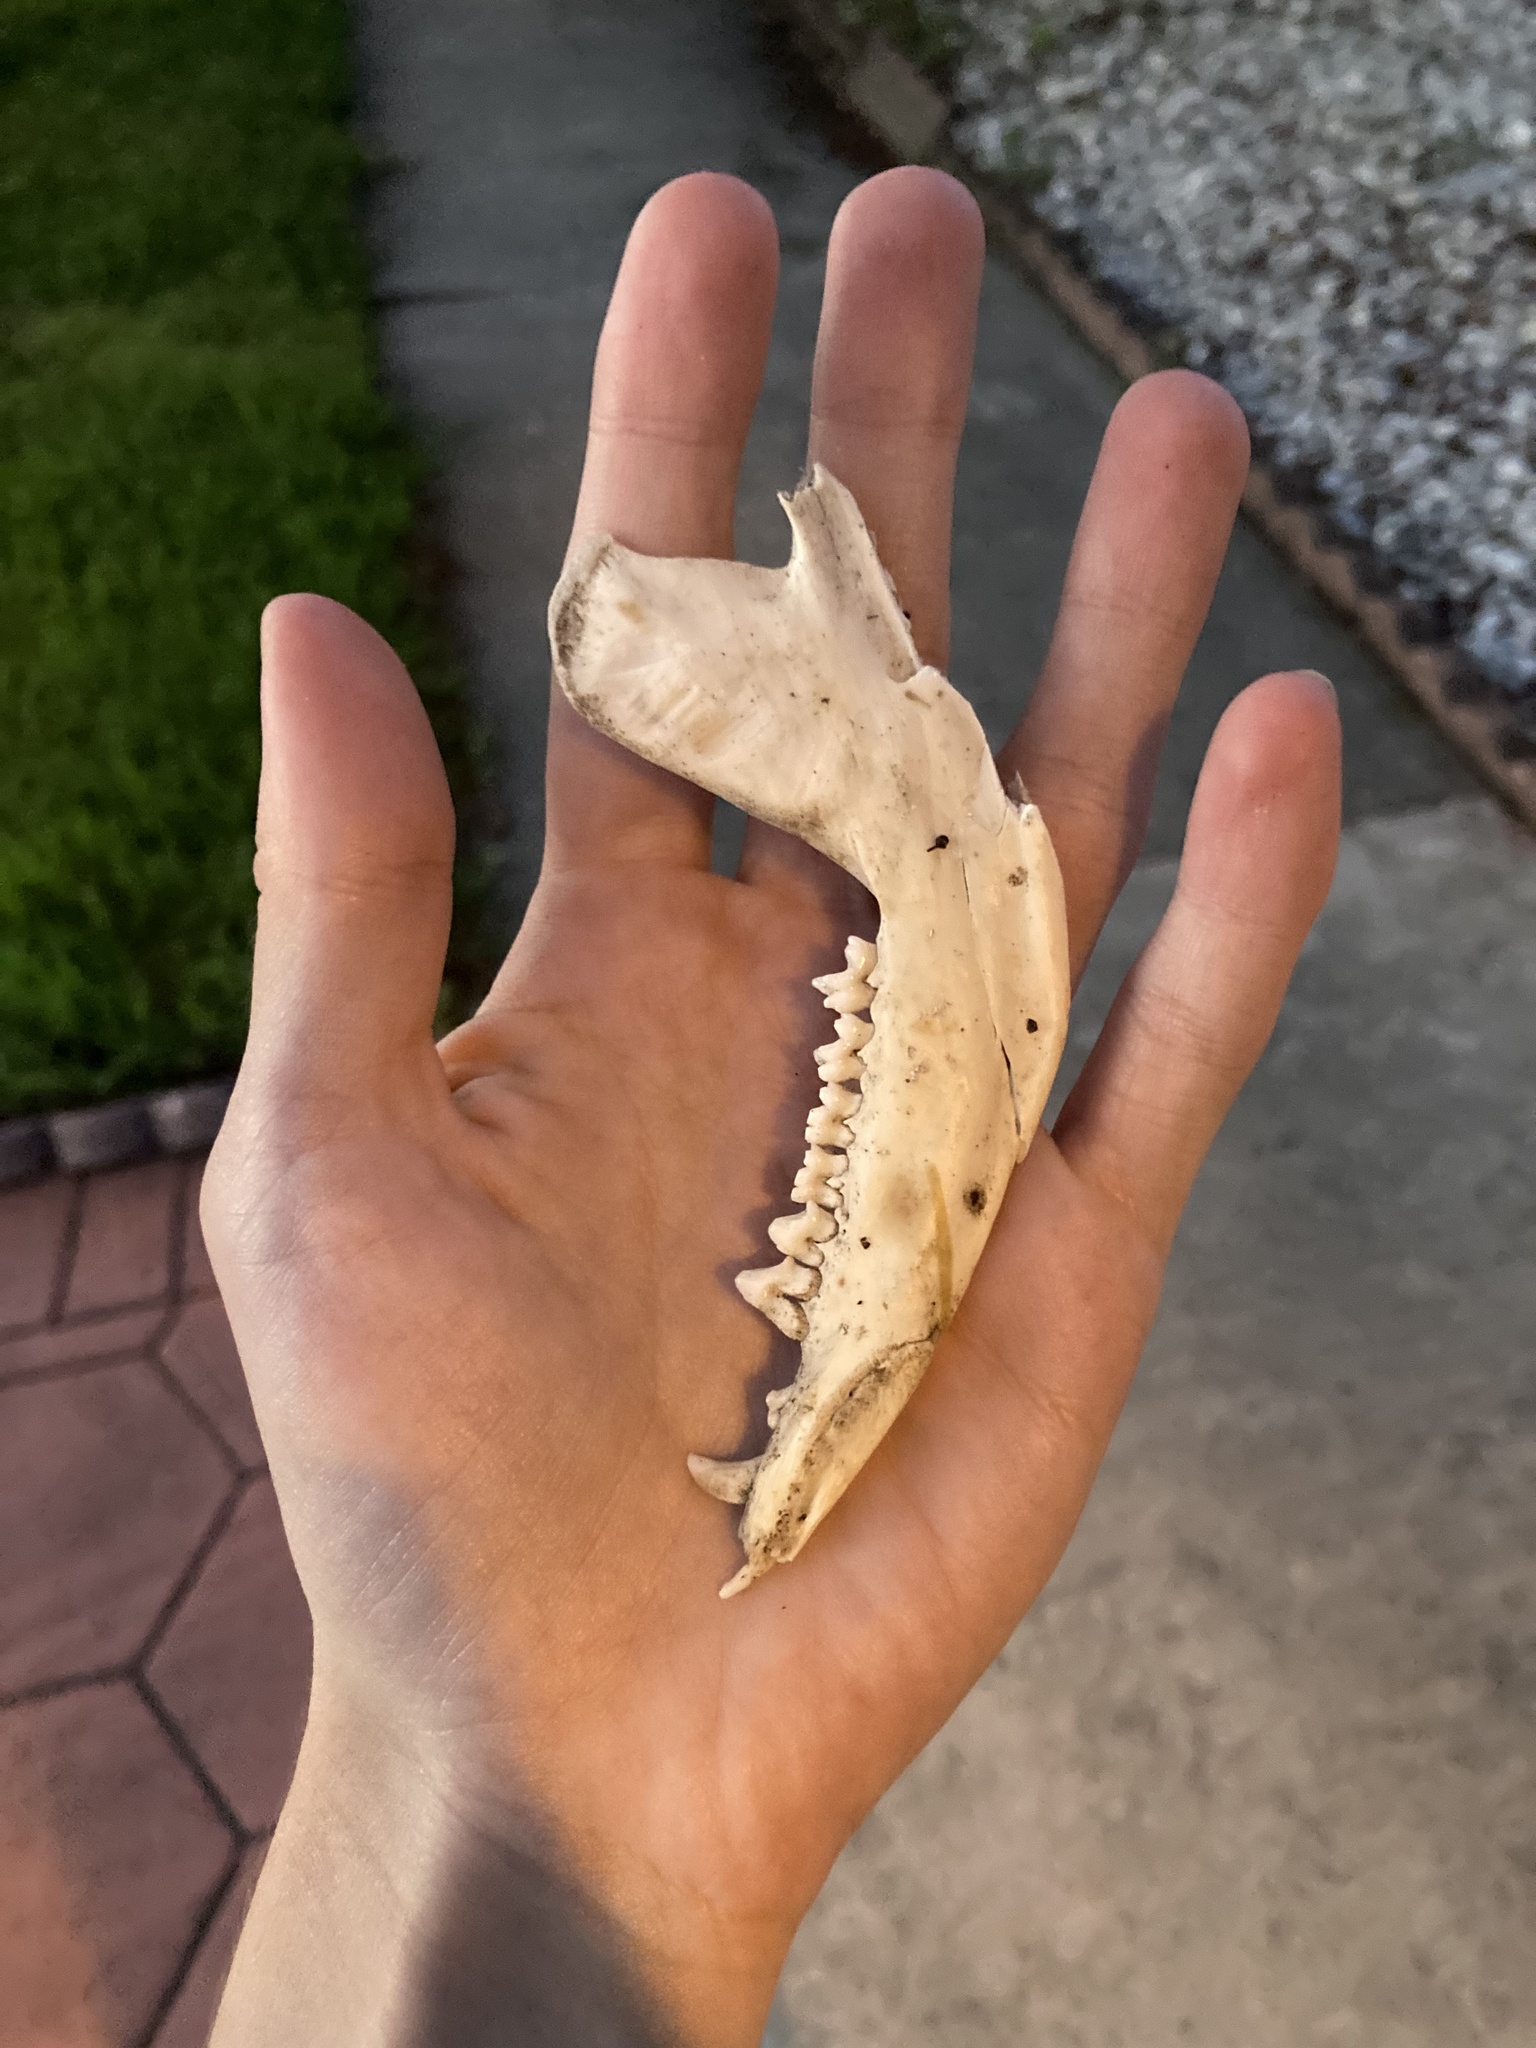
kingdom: Animalia
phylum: Chordata
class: Mammalia
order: Didelphimorphia
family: Didelphidae
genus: Didelphis
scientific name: Didelphis virginiana
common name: Virginia opossum
